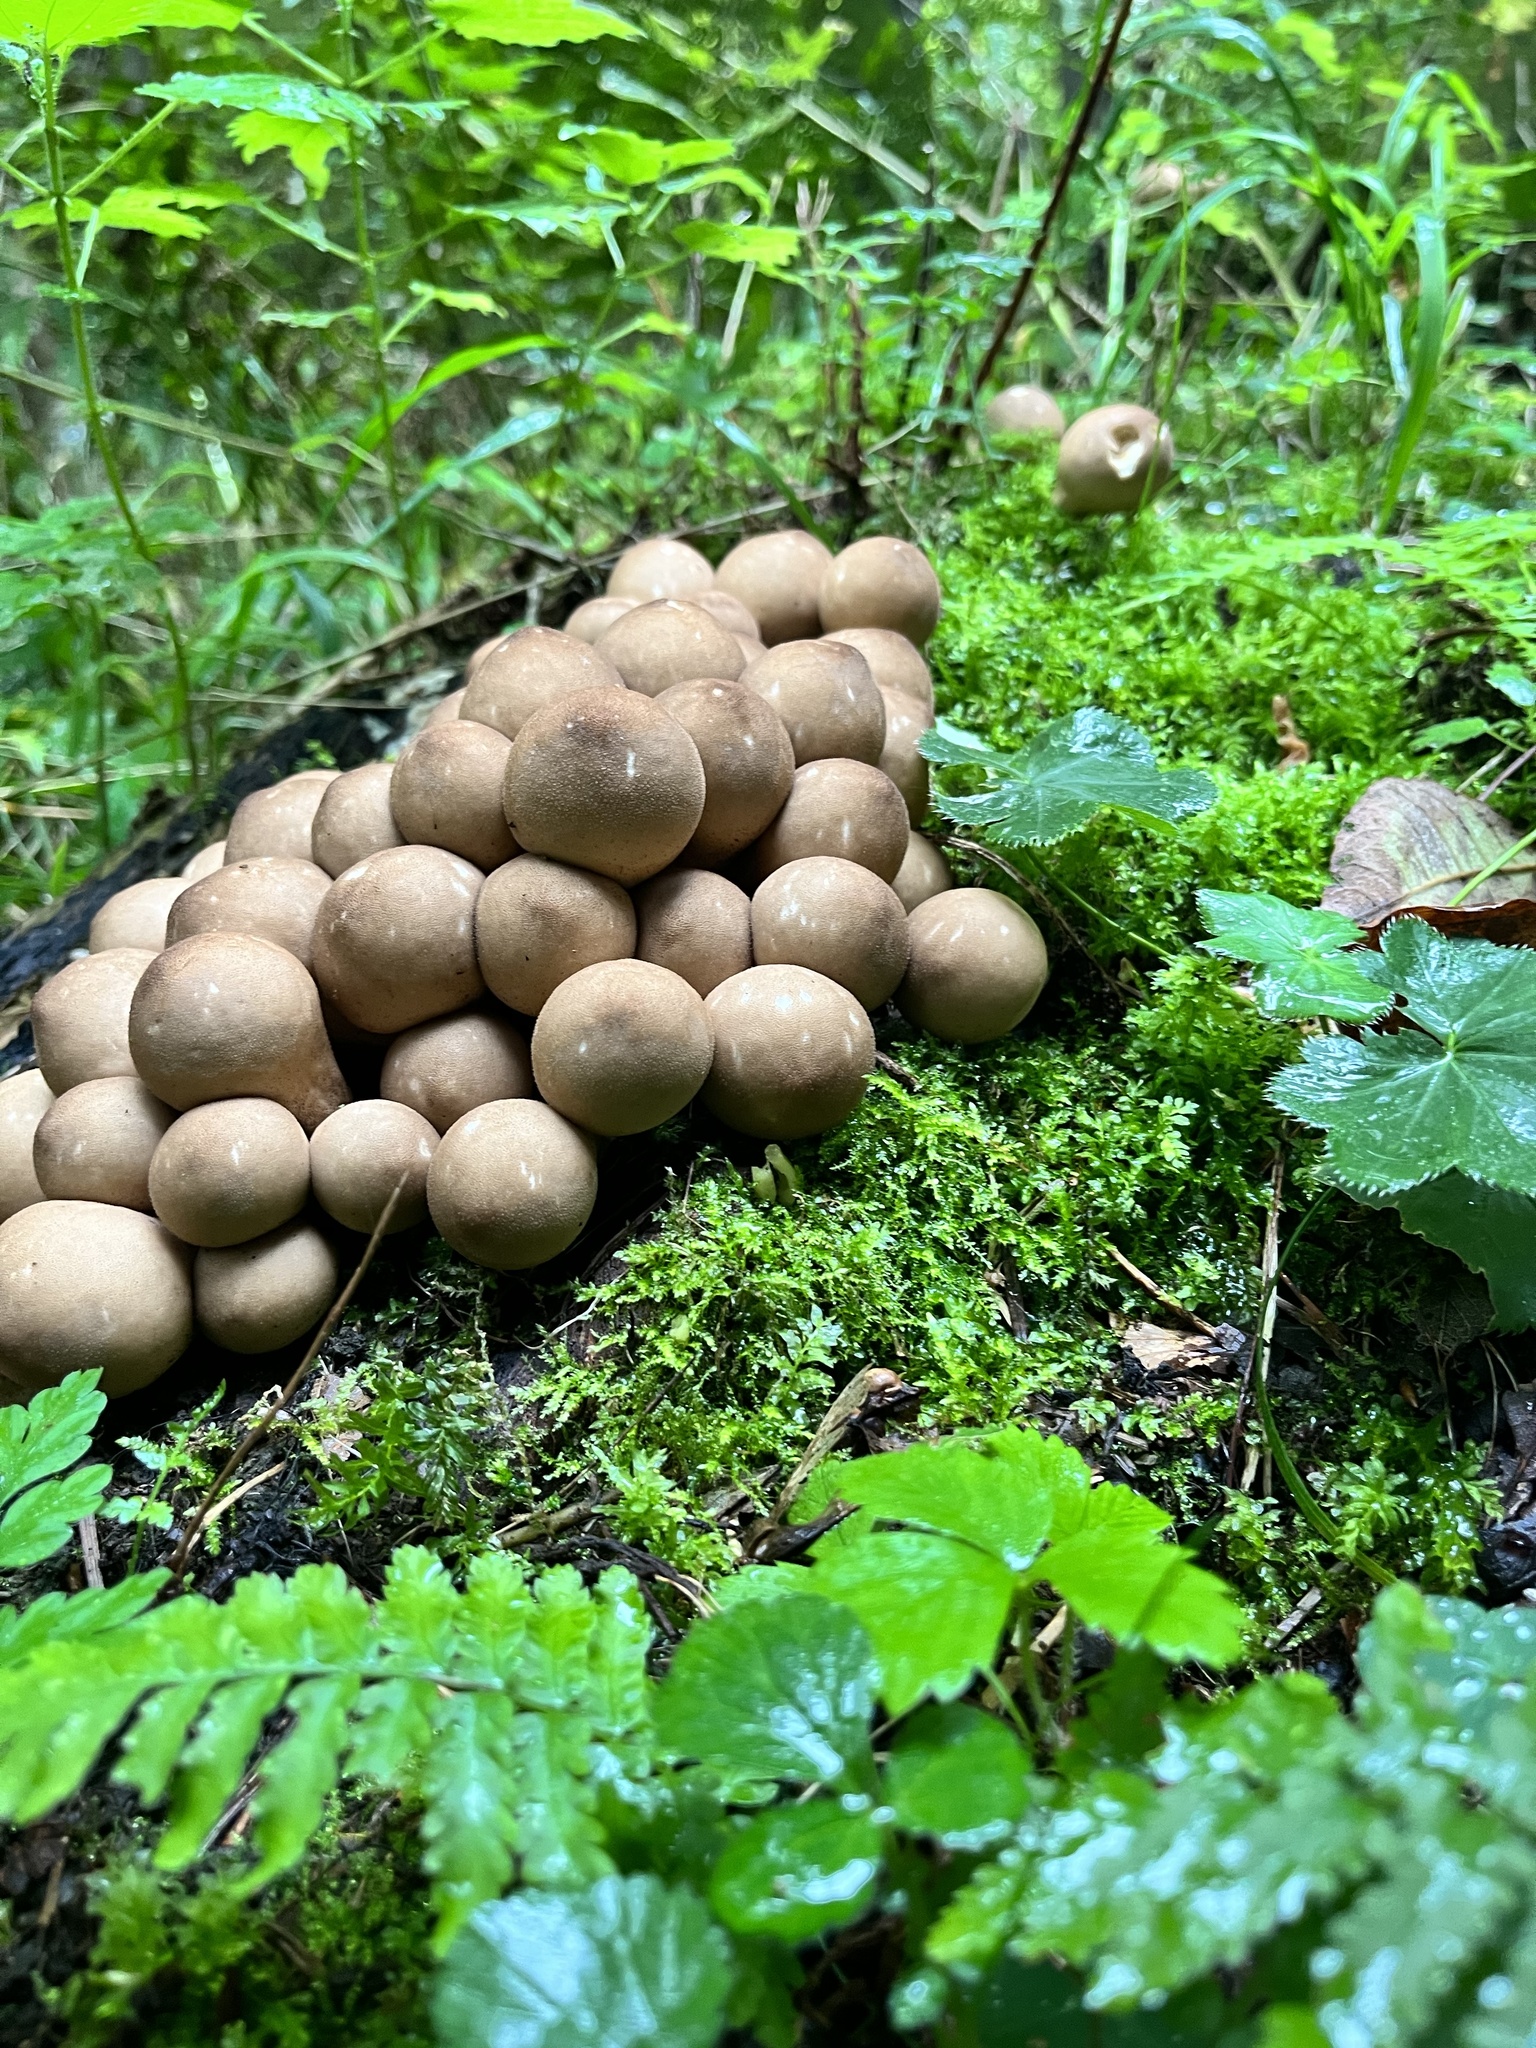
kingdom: Fungi
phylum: Basidiomycota
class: Agaricomycetes
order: Agaricales
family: Lycoperdaceae
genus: Apioperdon
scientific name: Apioperdon pyriforme
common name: Pear-shaped puffball
